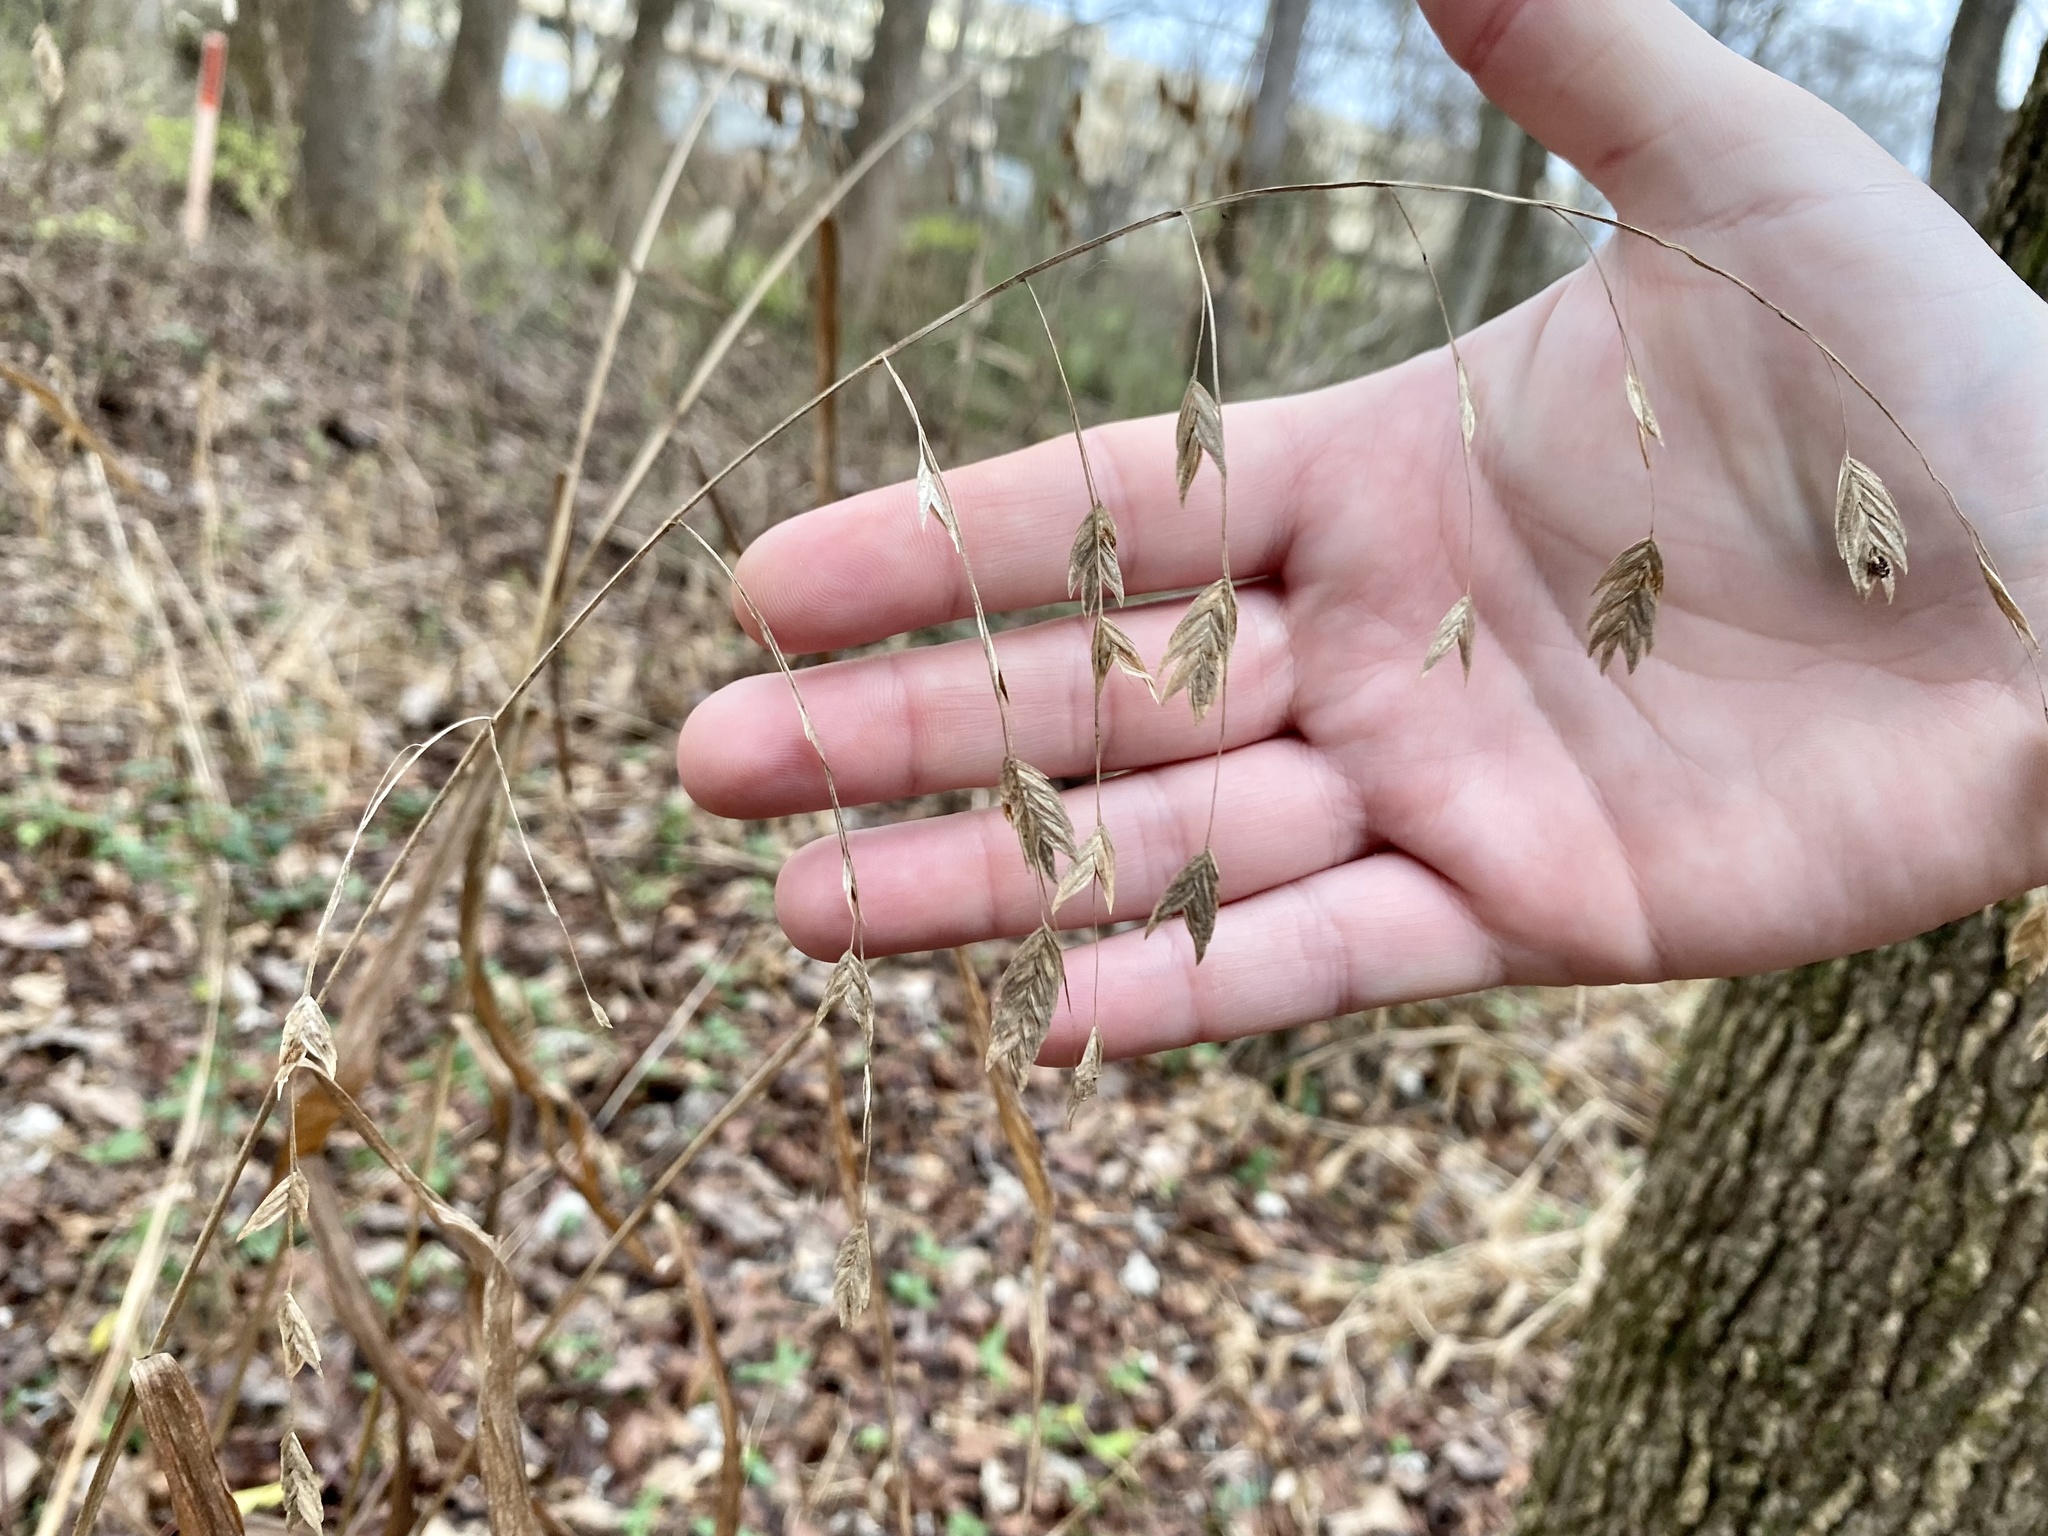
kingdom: Plantae
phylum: Tracheophyta
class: Liliopsida
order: Poales
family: Poaceae
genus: Chasmanthium
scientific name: Chasmanthium latifolium
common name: Broad-leaved chasmanthium
